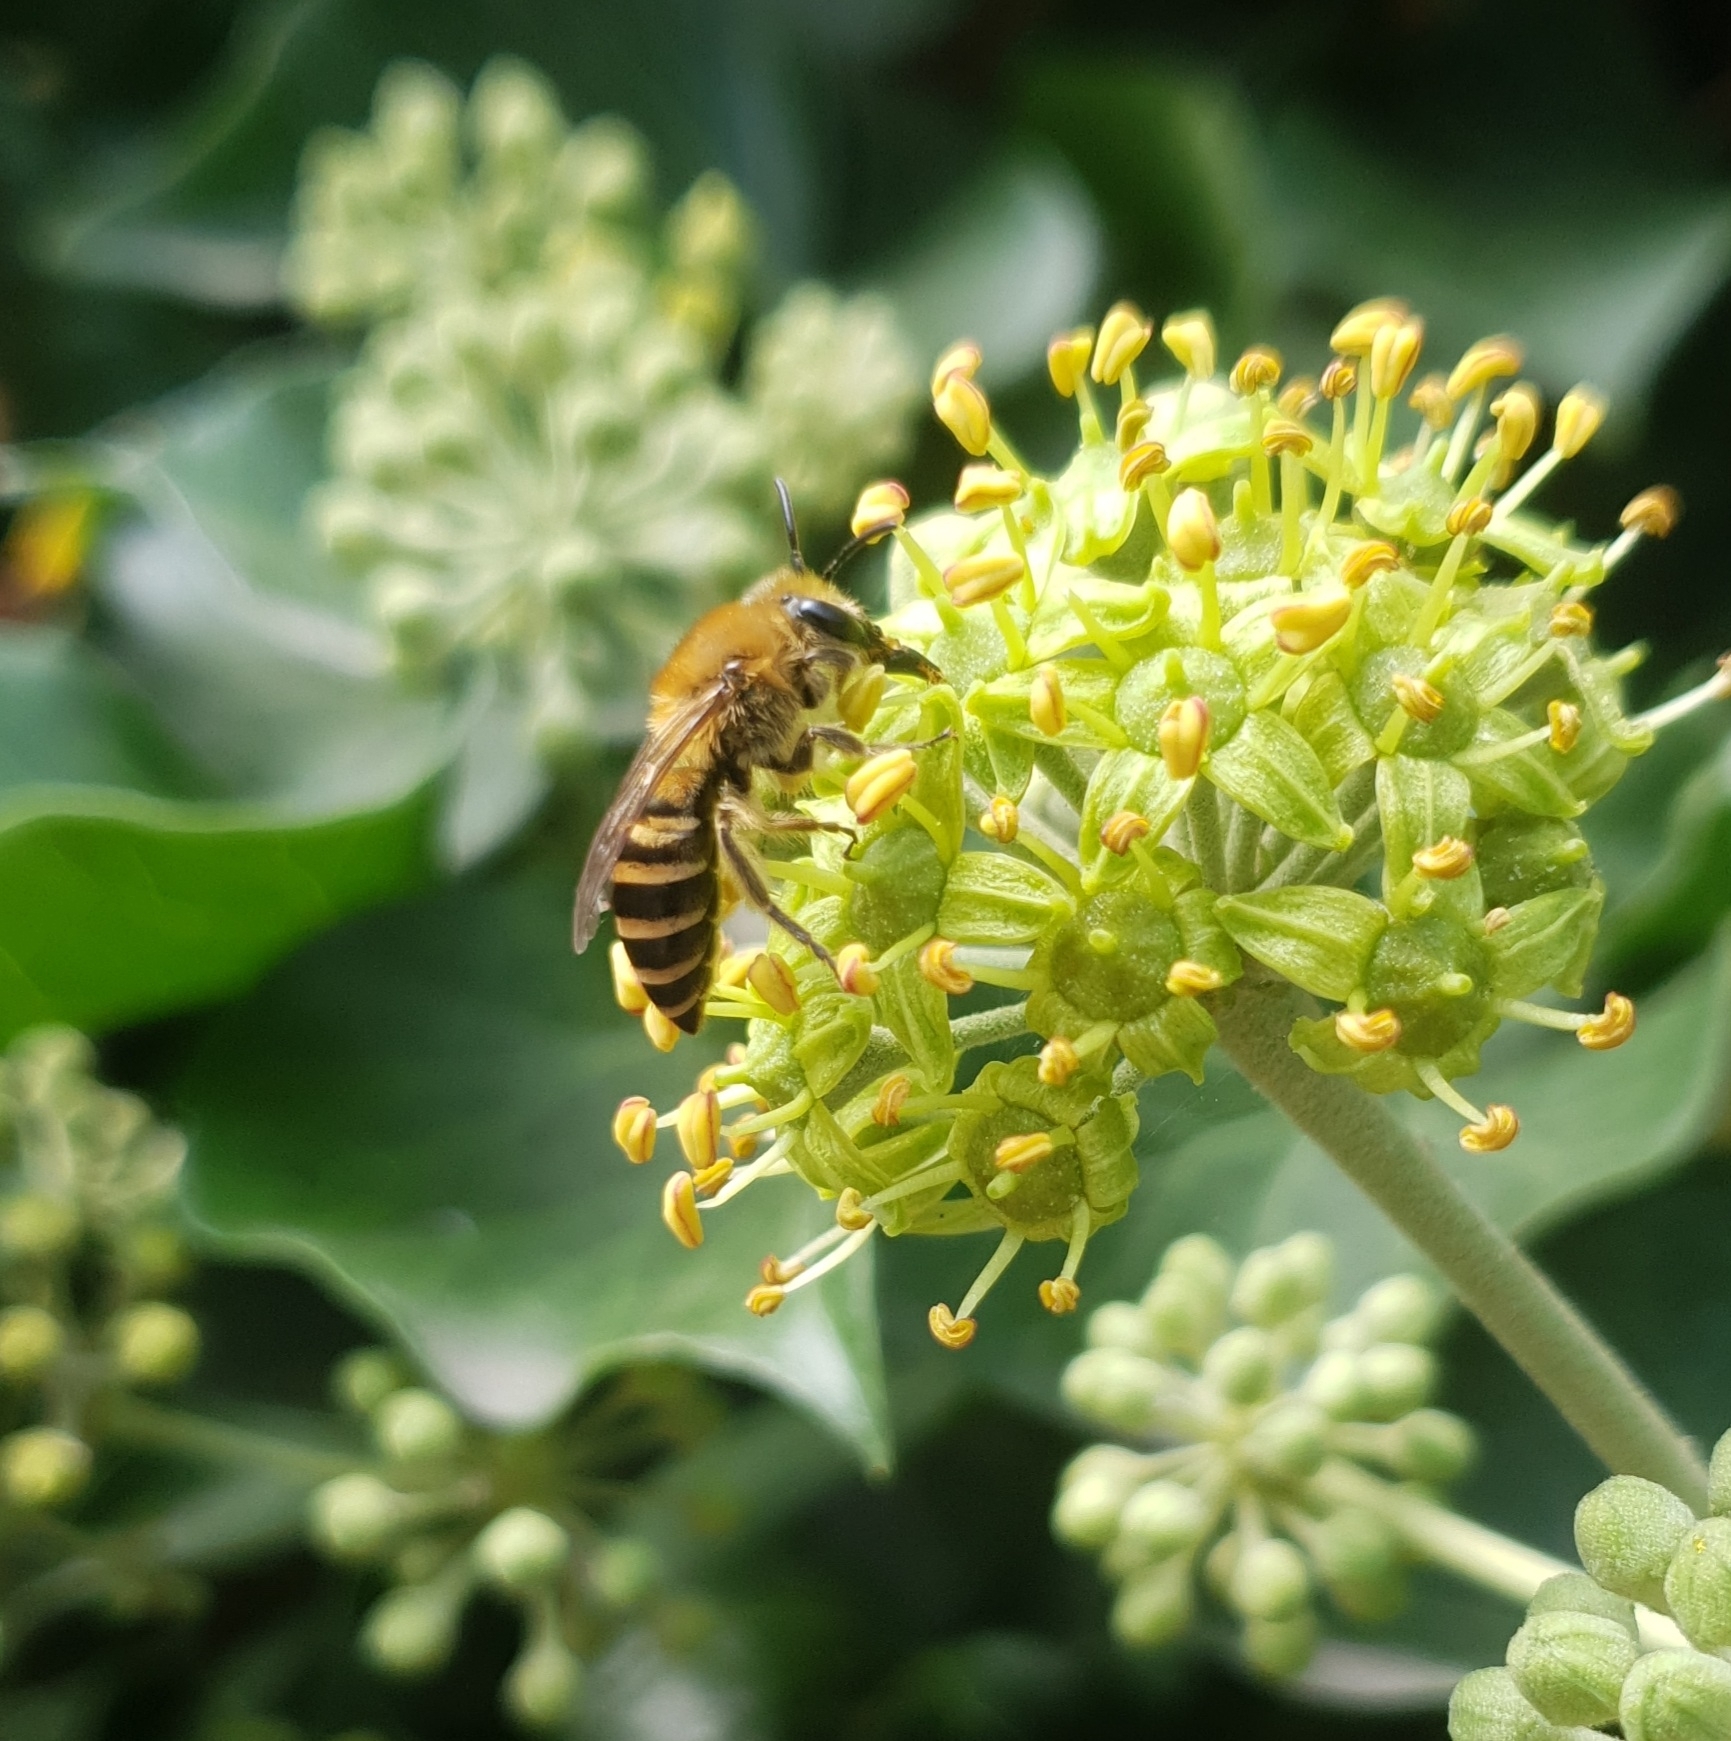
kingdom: Animalia
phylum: Arthropoda
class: Insecta
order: Hymenoptera
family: Colletidae
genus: Colletes
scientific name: Colletes hederae
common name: Ivy bee
